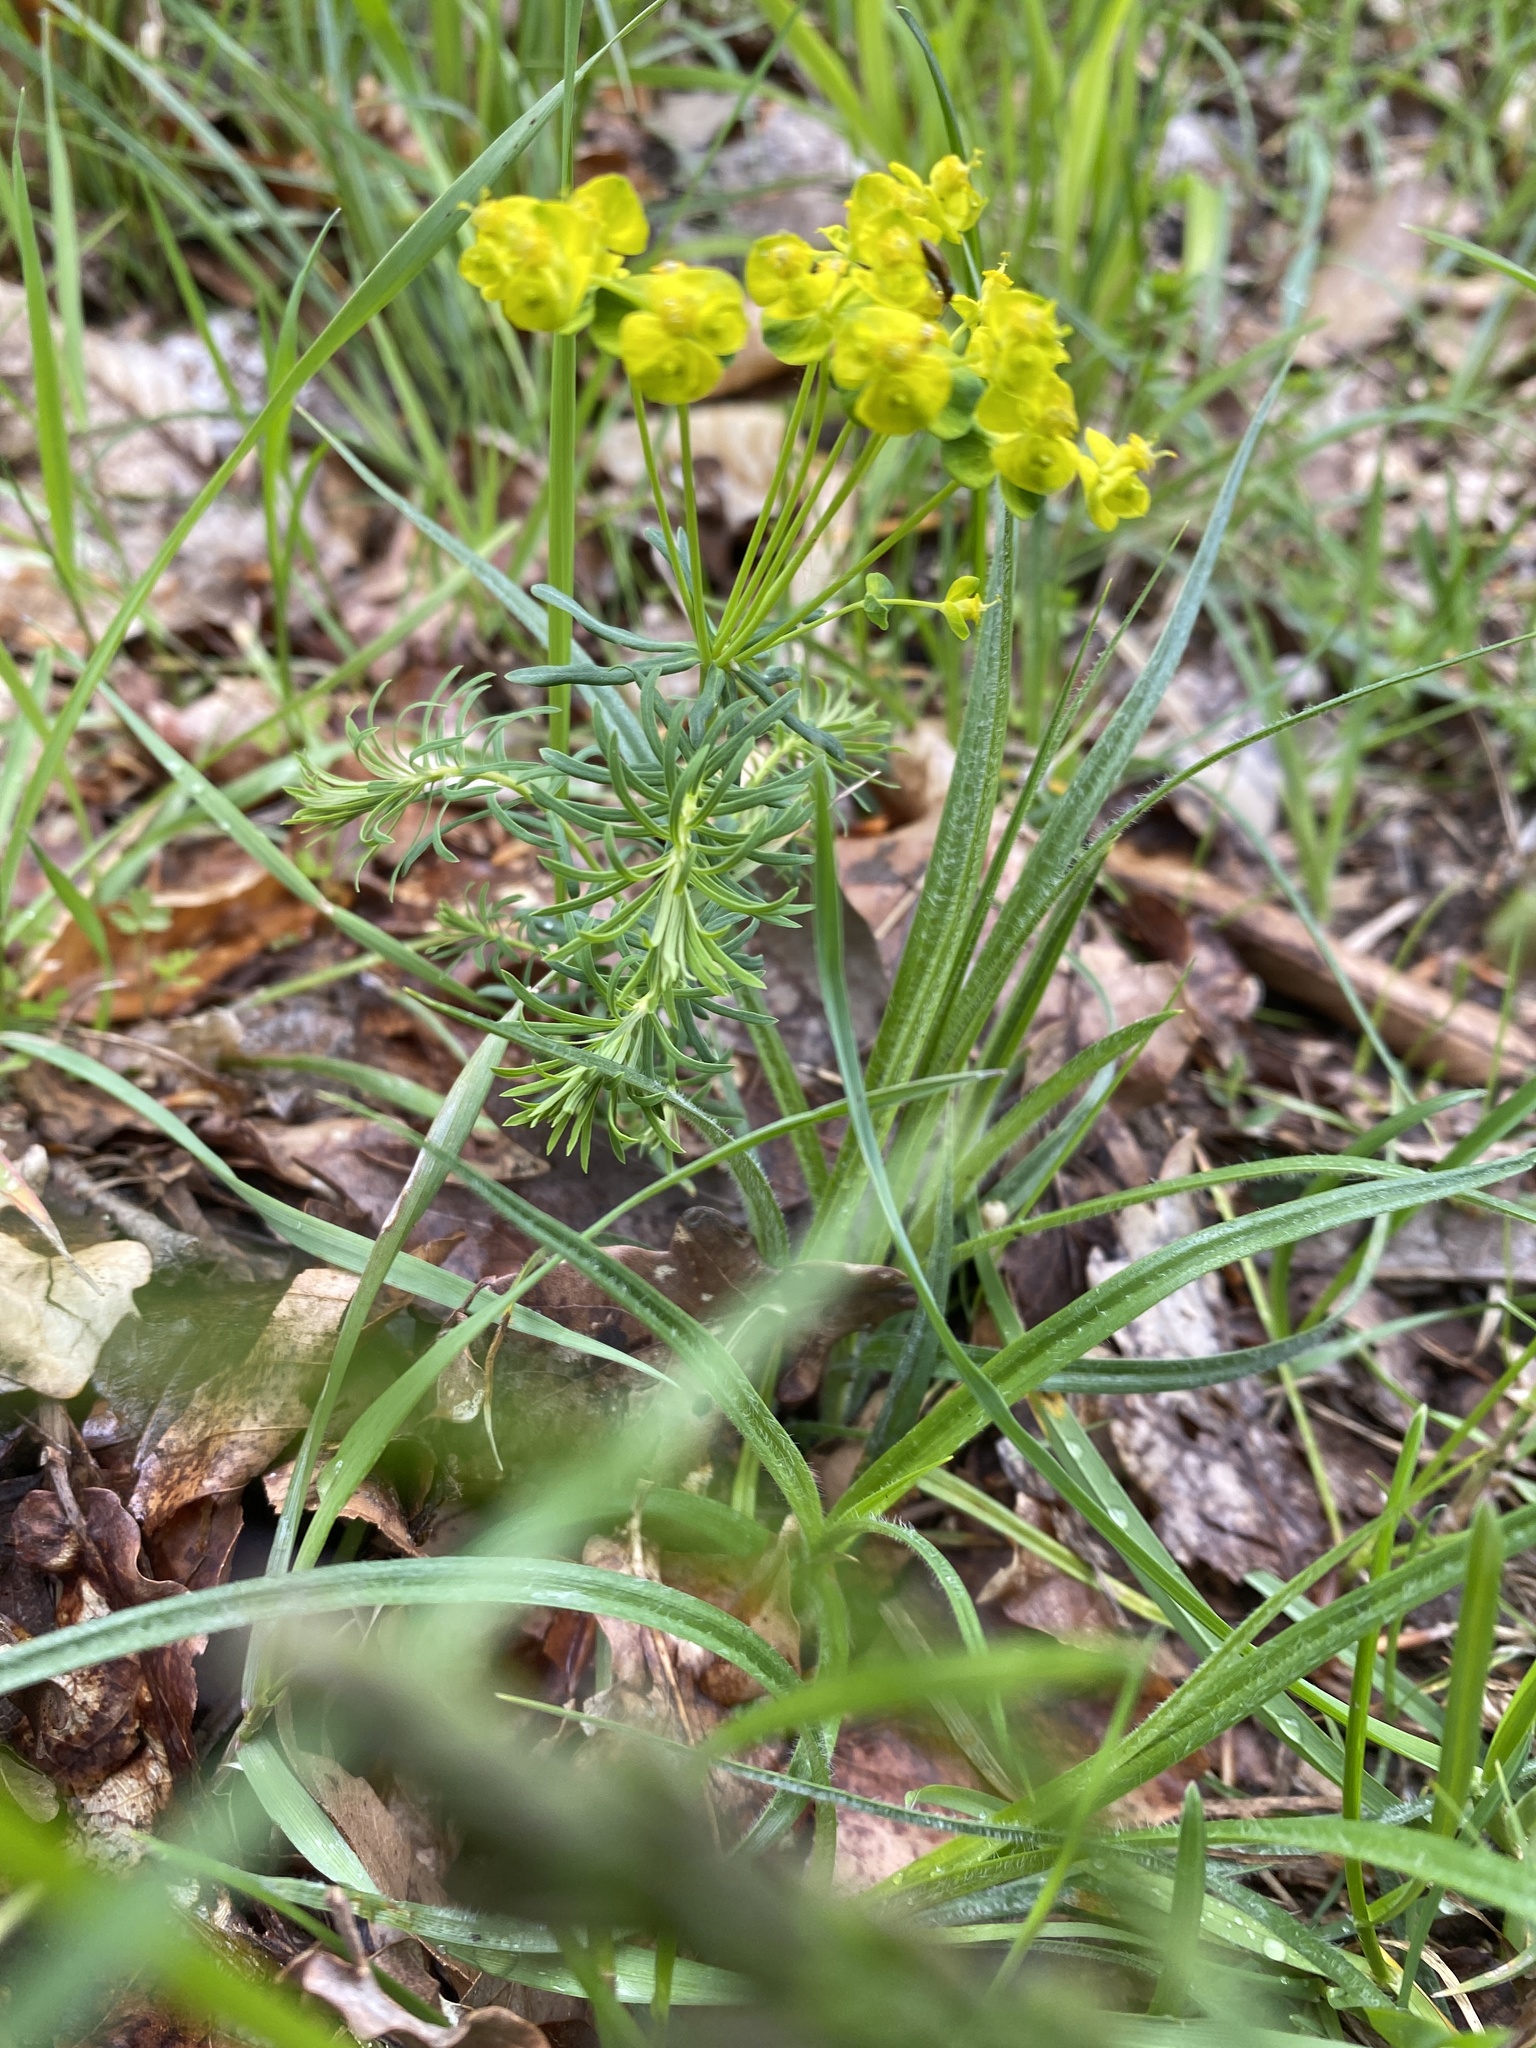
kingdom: Plantae
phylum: Tracheophyta
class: Magnoliopsida
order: Malpighiales
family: Euphorbiaceae
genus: Euphorbia
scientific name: Euphorbia cyparissias
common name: Cypress spurge
